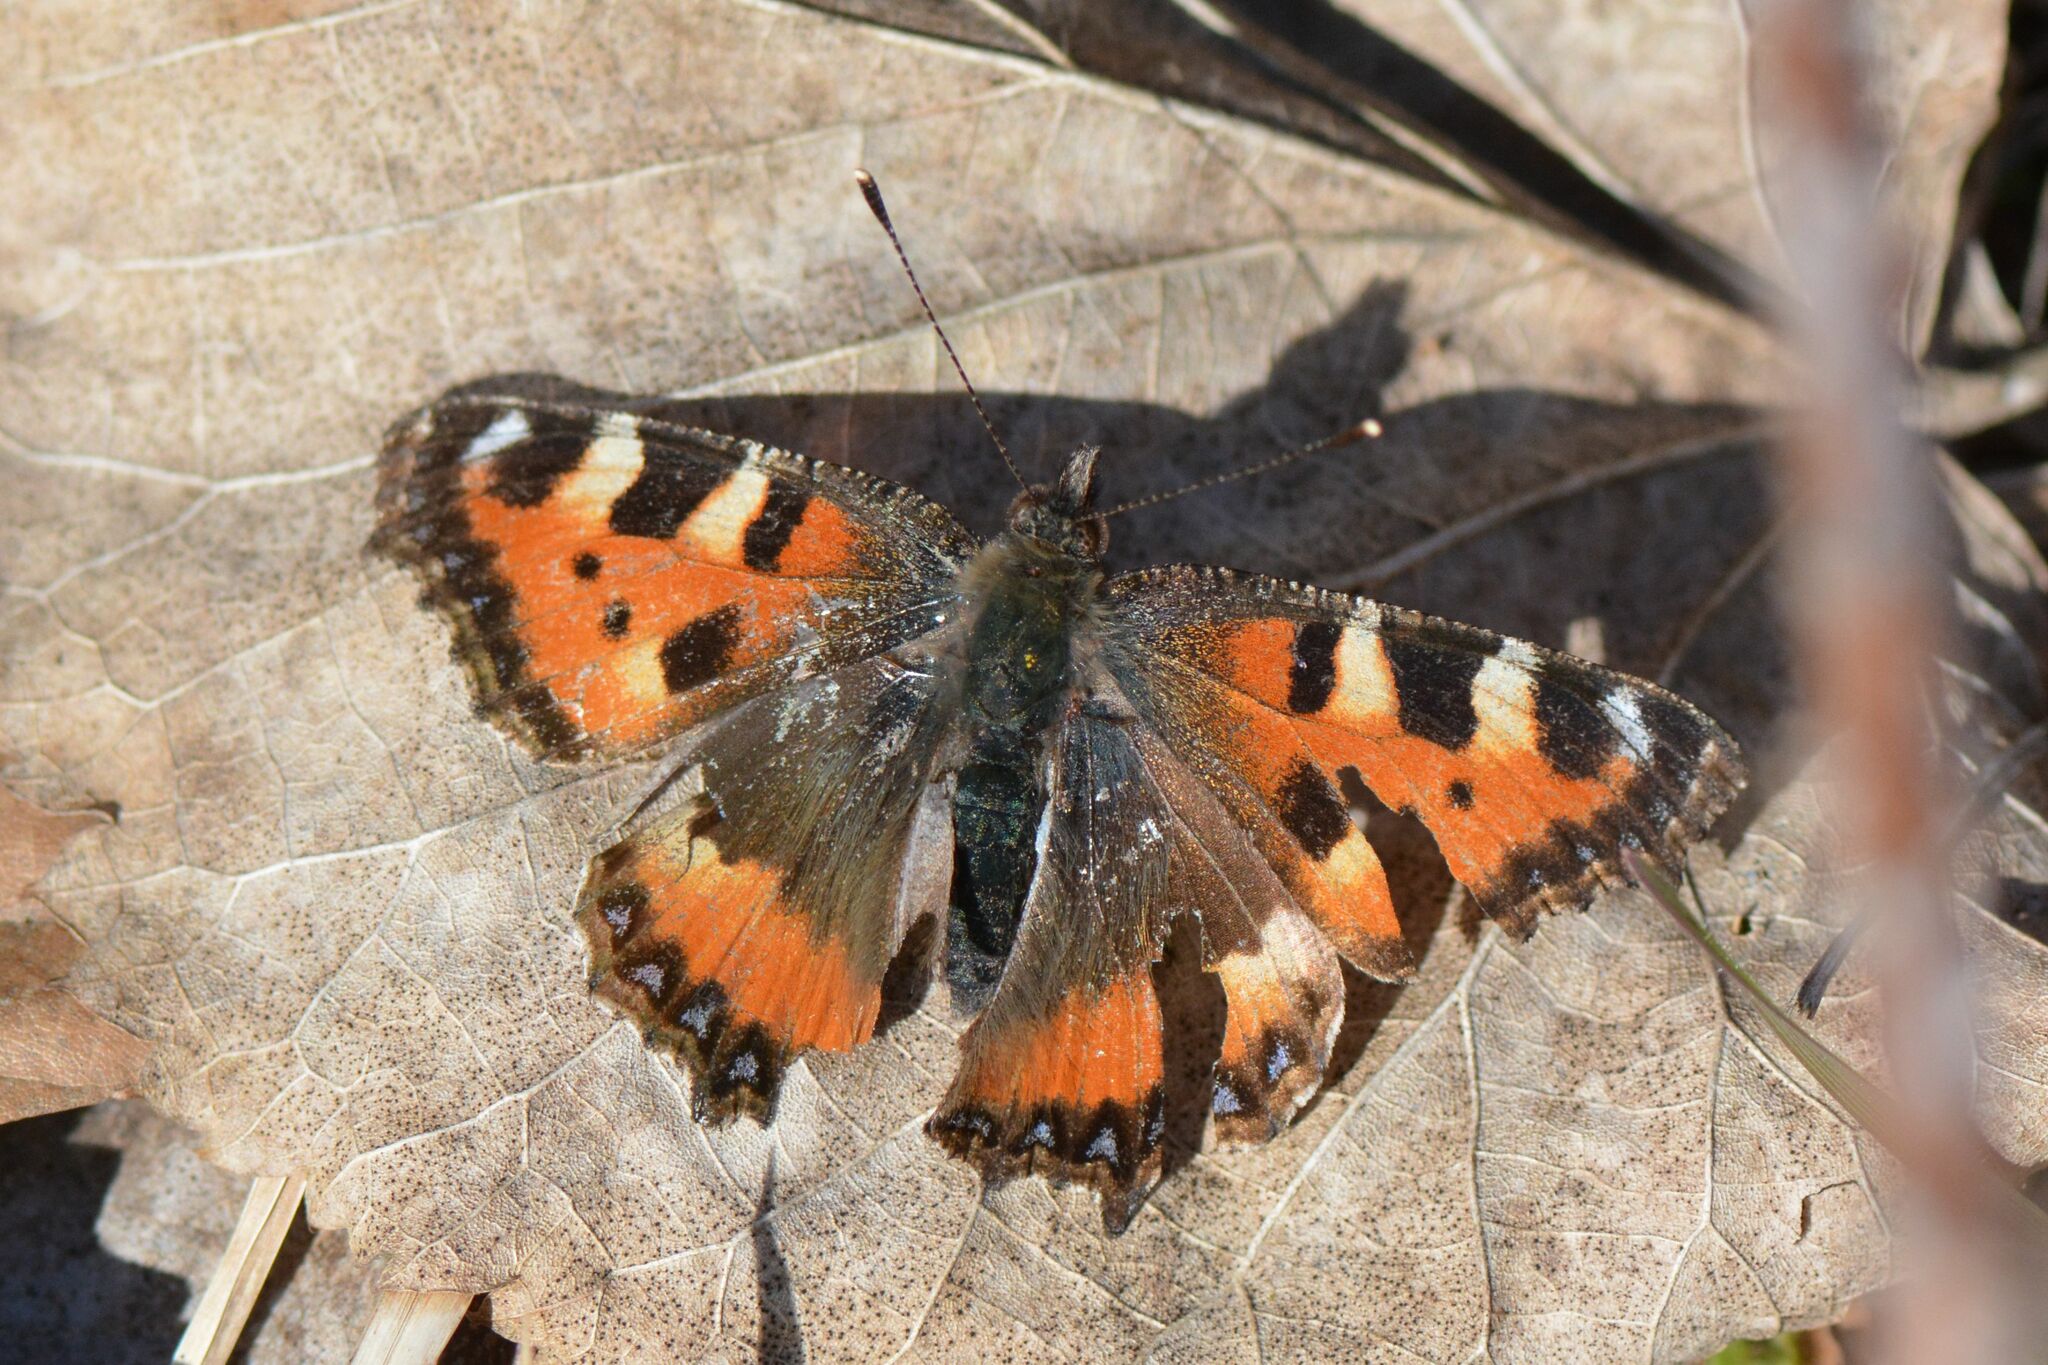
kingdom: Animalia
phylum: Arthropoda
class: Insecta
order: Lepidoptera
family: Nymphalidae
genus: Aglais
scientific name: Aglais urticae
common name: Small tortoiseshell
